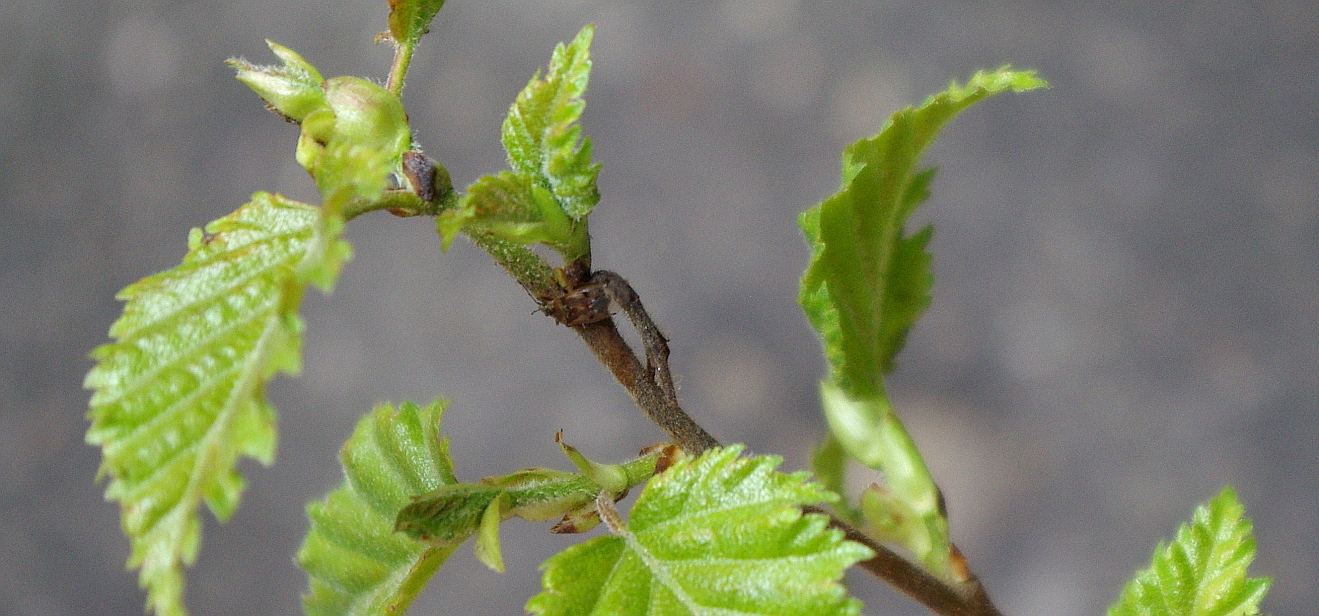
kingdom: Plantae
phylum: Tracheophyta
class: Magnoliopsida
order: Fagales
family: Betulaceae
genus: Betula
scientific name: Betula pubescens
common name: Downy birch
